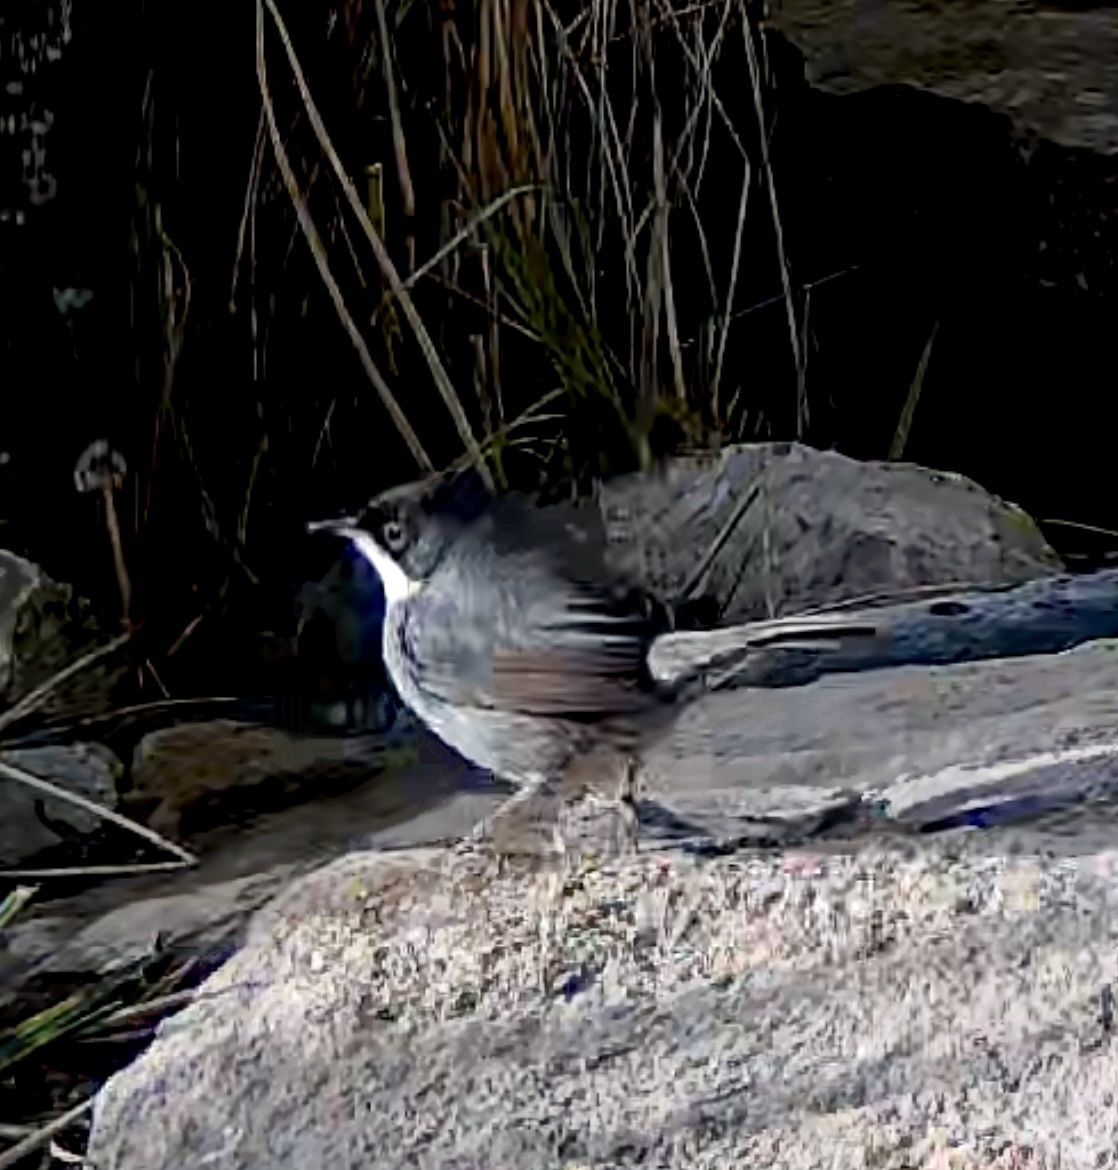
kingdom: Animalia
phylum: Chordata
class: Aves
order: Passeriformes
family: Sylviidae
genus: Curruca
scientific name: Curruca melanocephala
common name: Sardinian warbler
